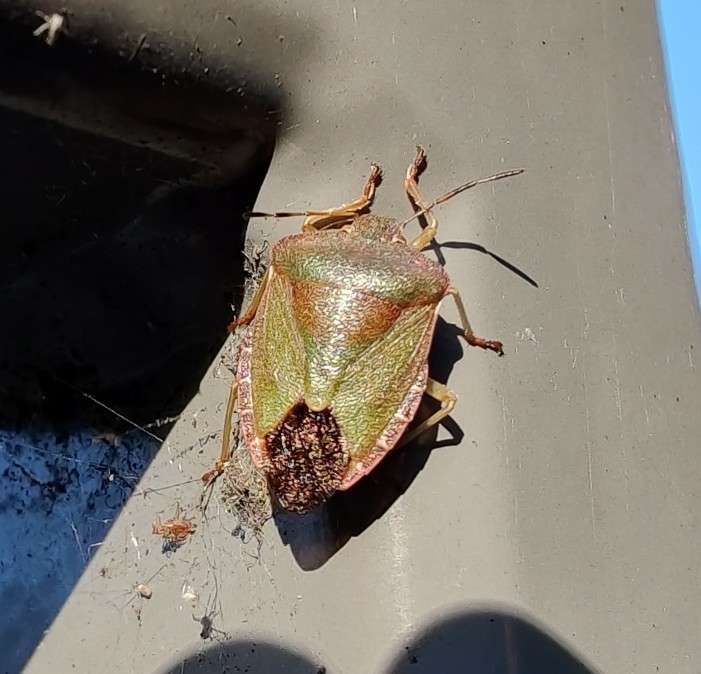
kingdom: Animalia
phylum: Arthropoda
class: Insecta
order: Hemiptera
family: Pentatomidae
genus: Palomena
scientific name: Palomena prasina
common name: Green shieldbug
